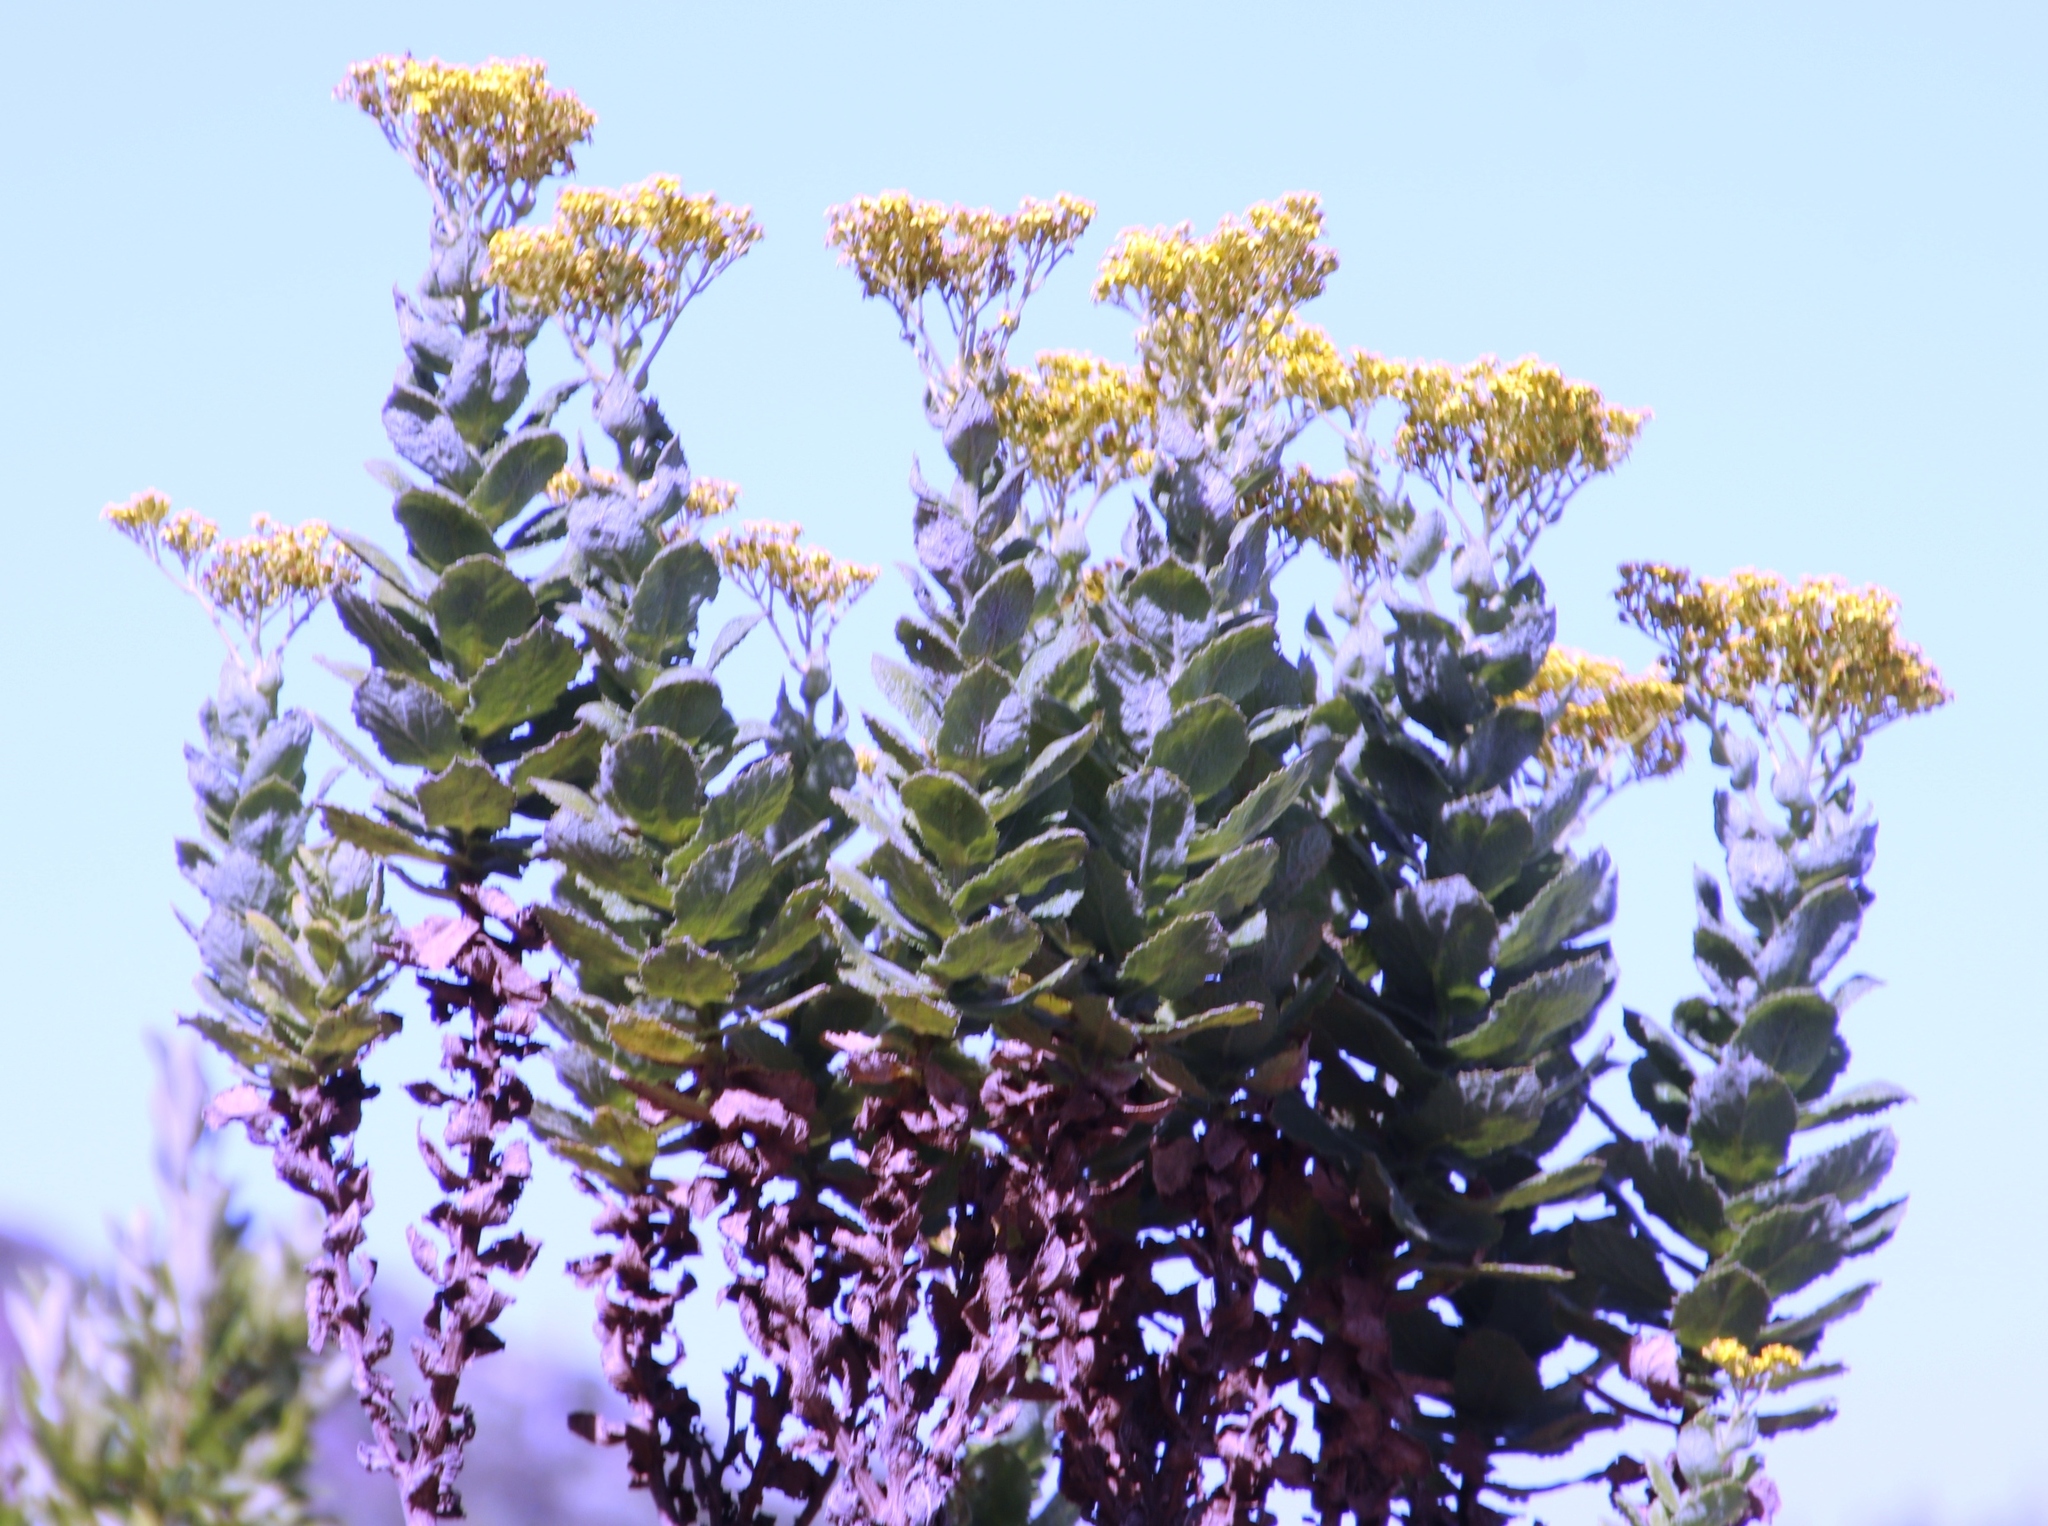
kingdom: Plantae
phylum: Tracheophyta
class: Magnoliopsida
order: Asterales
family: Asteraceae
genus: Senecio
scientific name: Senecio rigidus
